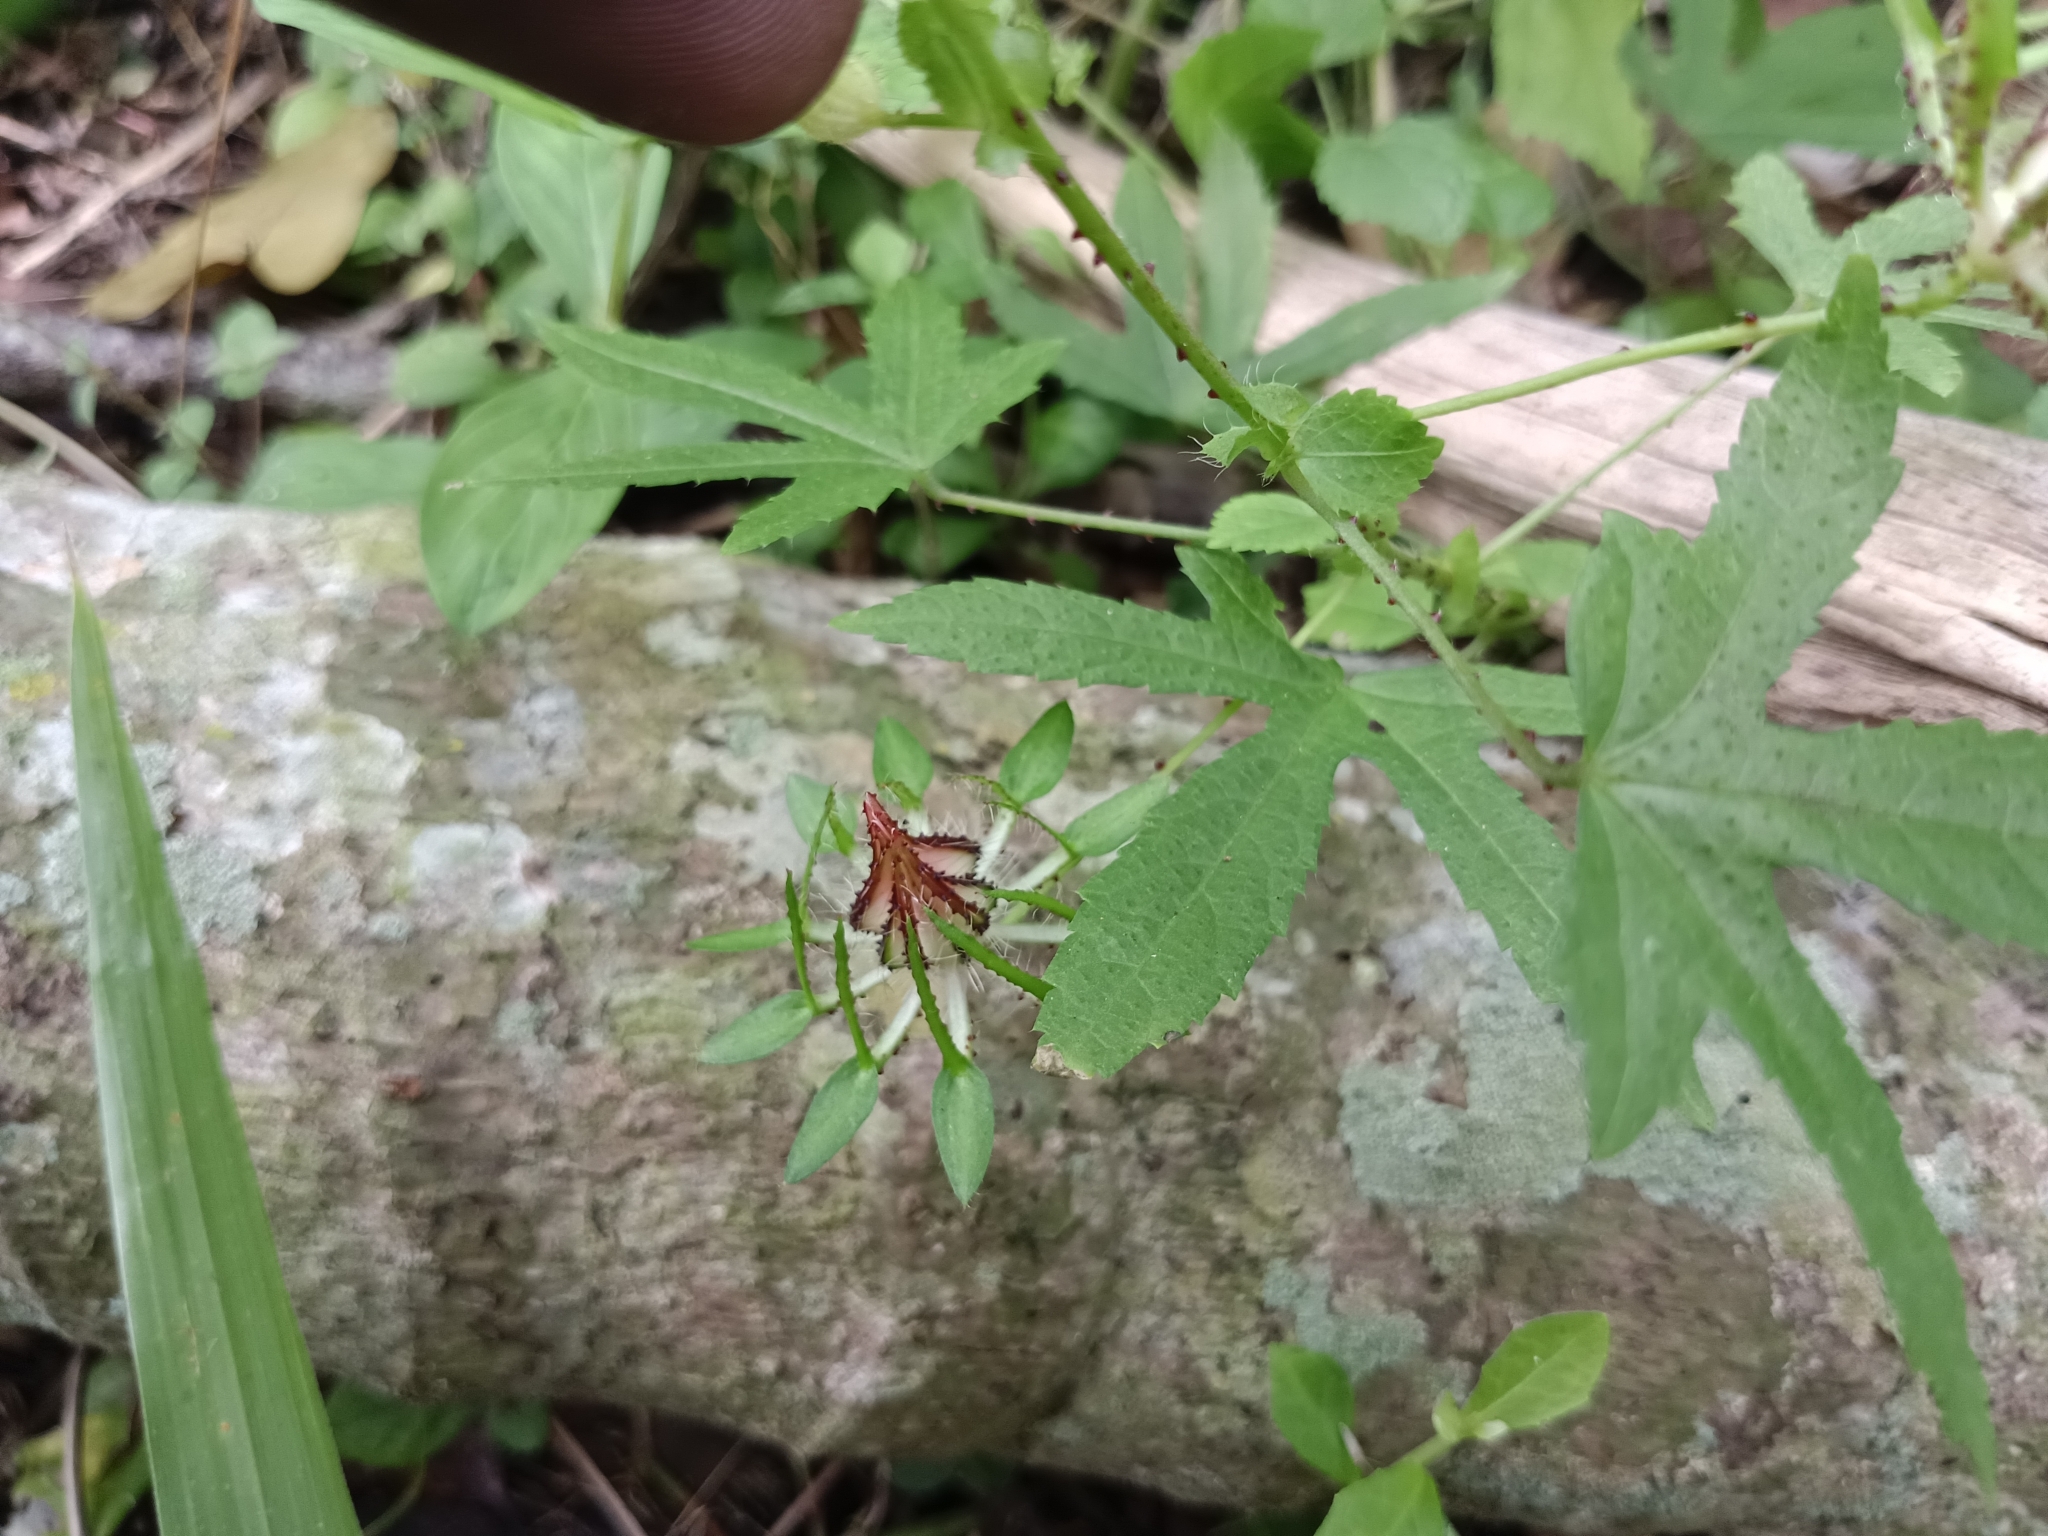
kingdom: Plantae
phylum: Tracheophyta
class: Magnoliopsida
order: Malvales
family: Malvaceae
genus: Hibiscus
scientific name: Hibiscus surattensis
